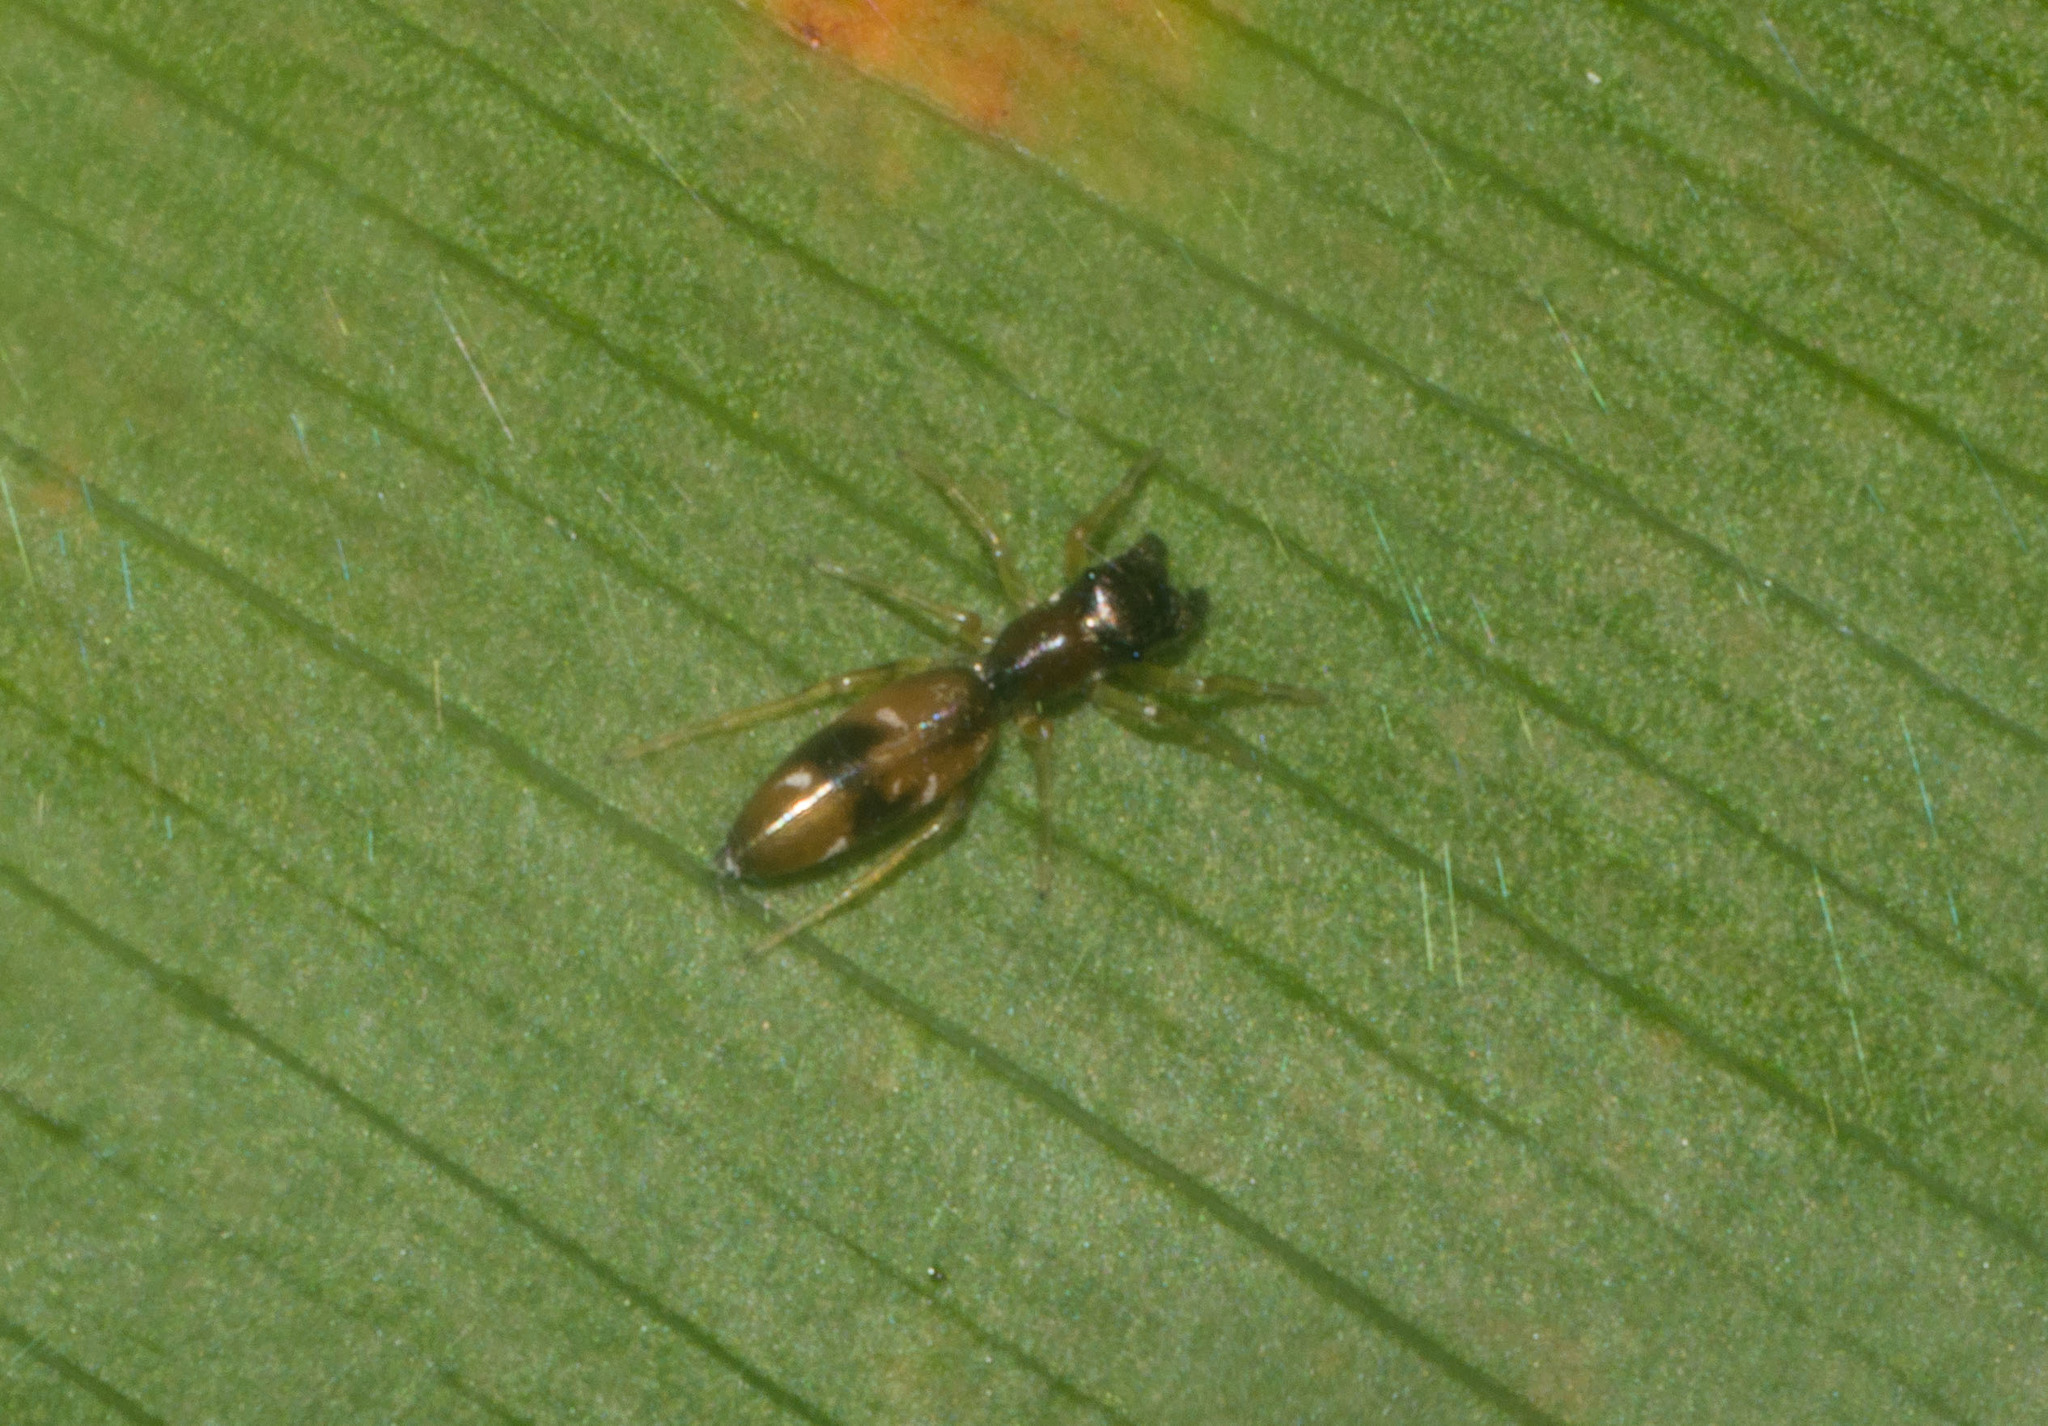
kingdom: Animalia
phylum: Arthropoda
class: Arachnida
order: Araneae
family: Salticidae
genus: Myrmarachne
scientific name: Myrmarachne nigella
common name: Jumping spider
